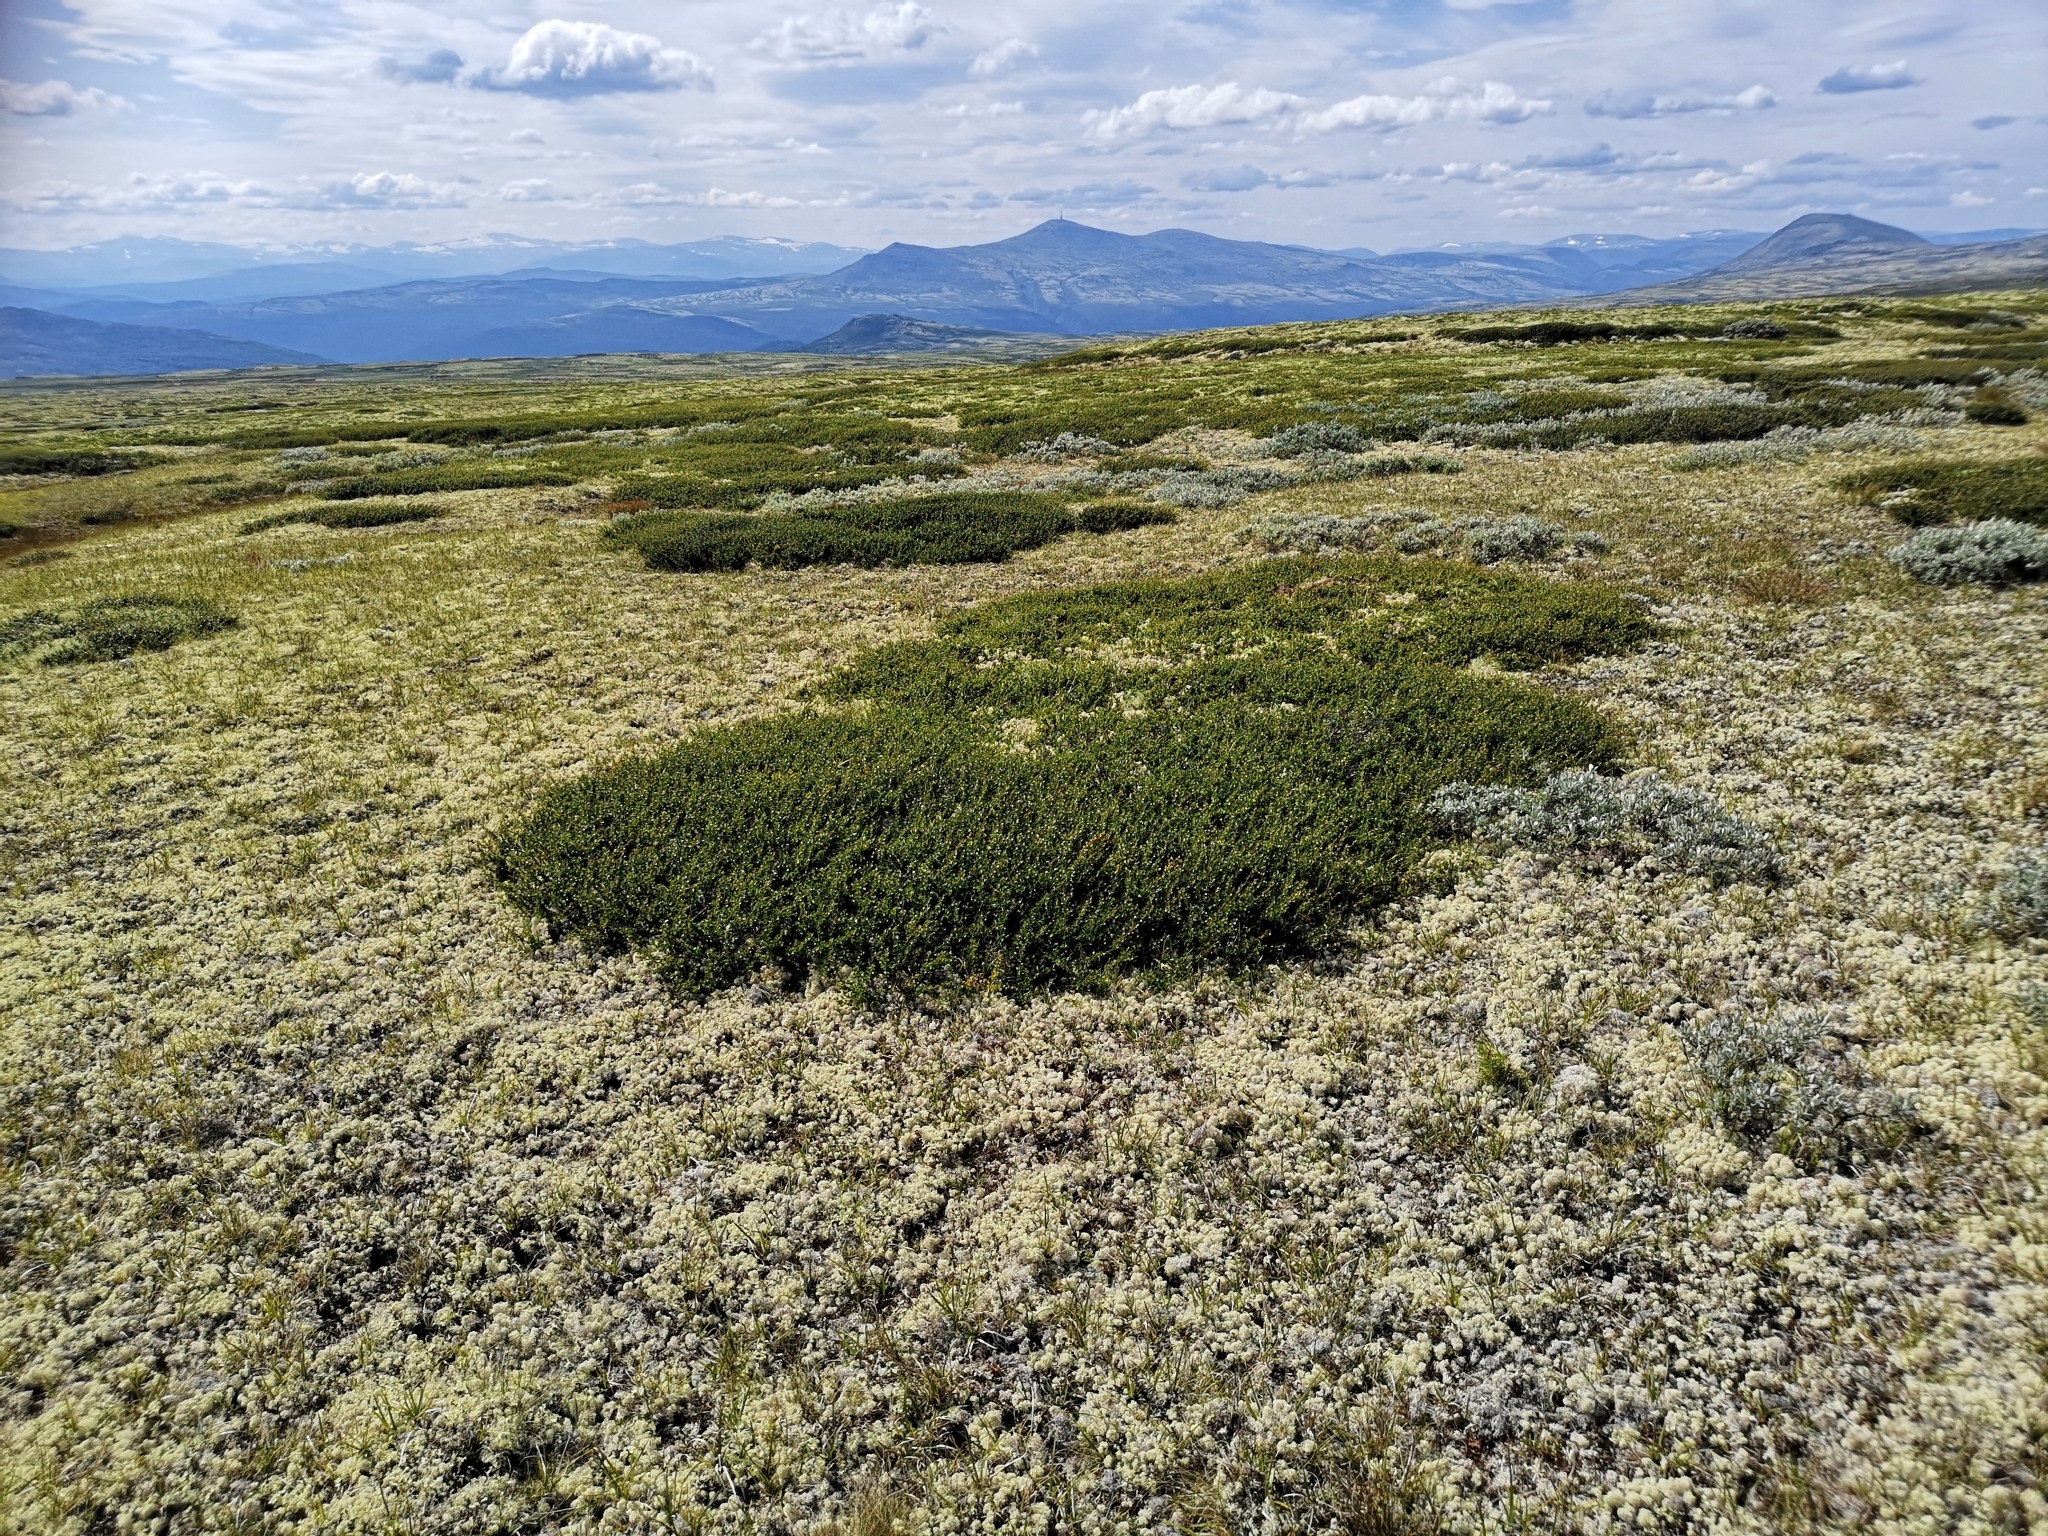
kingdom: Plantae
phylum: Tracheophyta
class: Magnoliopsida
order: Fagales
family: Betulaceae
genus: Betula
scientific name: Betula nana
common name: Arctic dwarf birch
